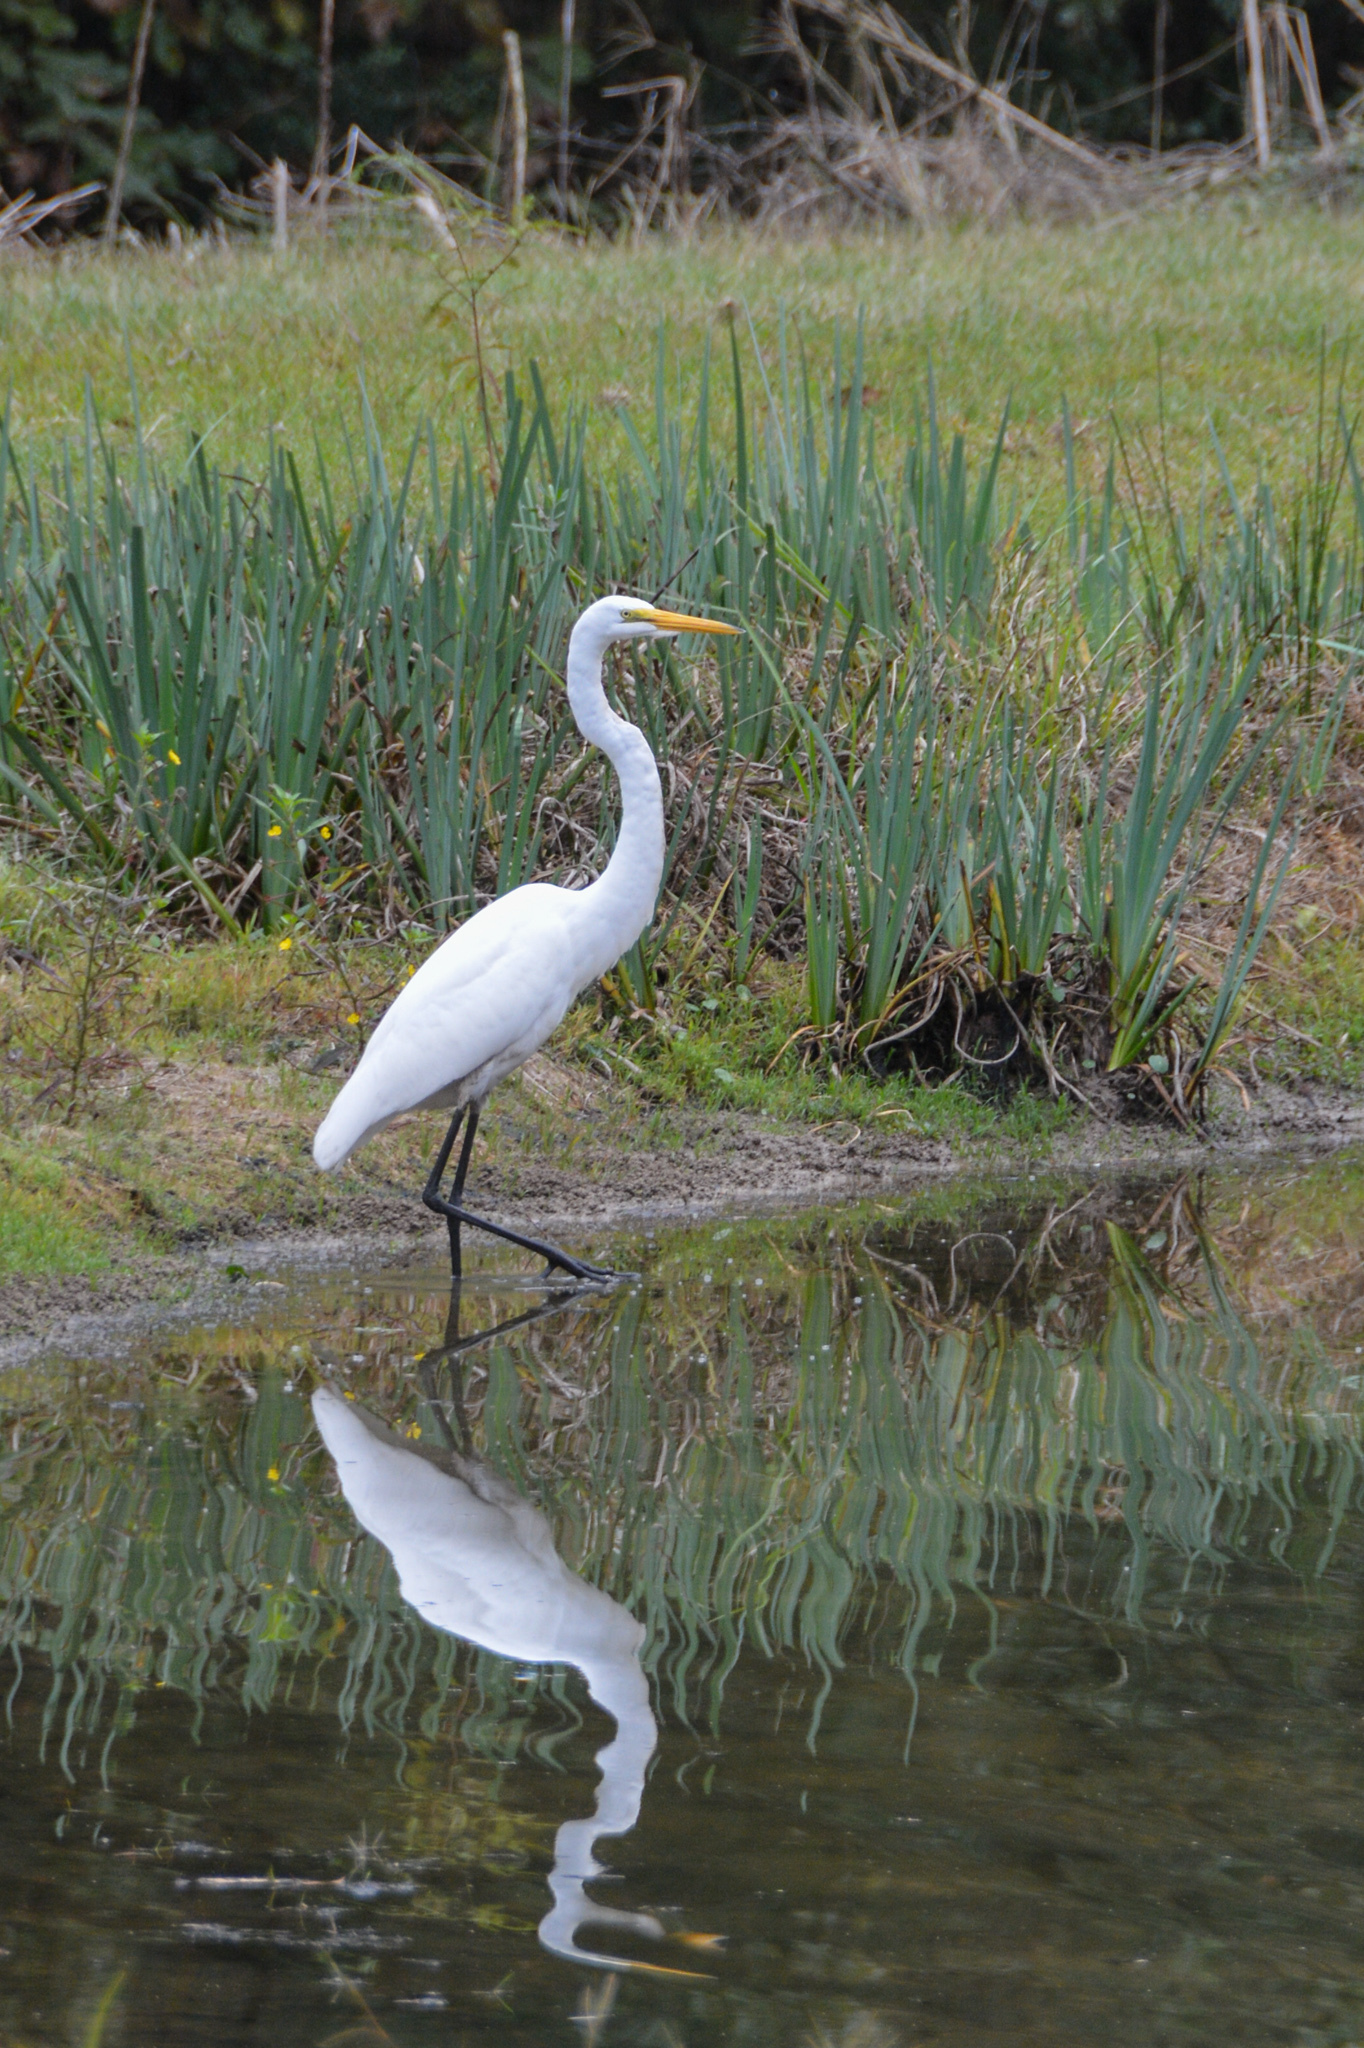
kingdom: Animalia
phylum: Chordata
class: Aves
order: Pelecaniformes
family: Ardeidae
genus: Ardea
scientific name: Ardea alba
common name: Great egret
